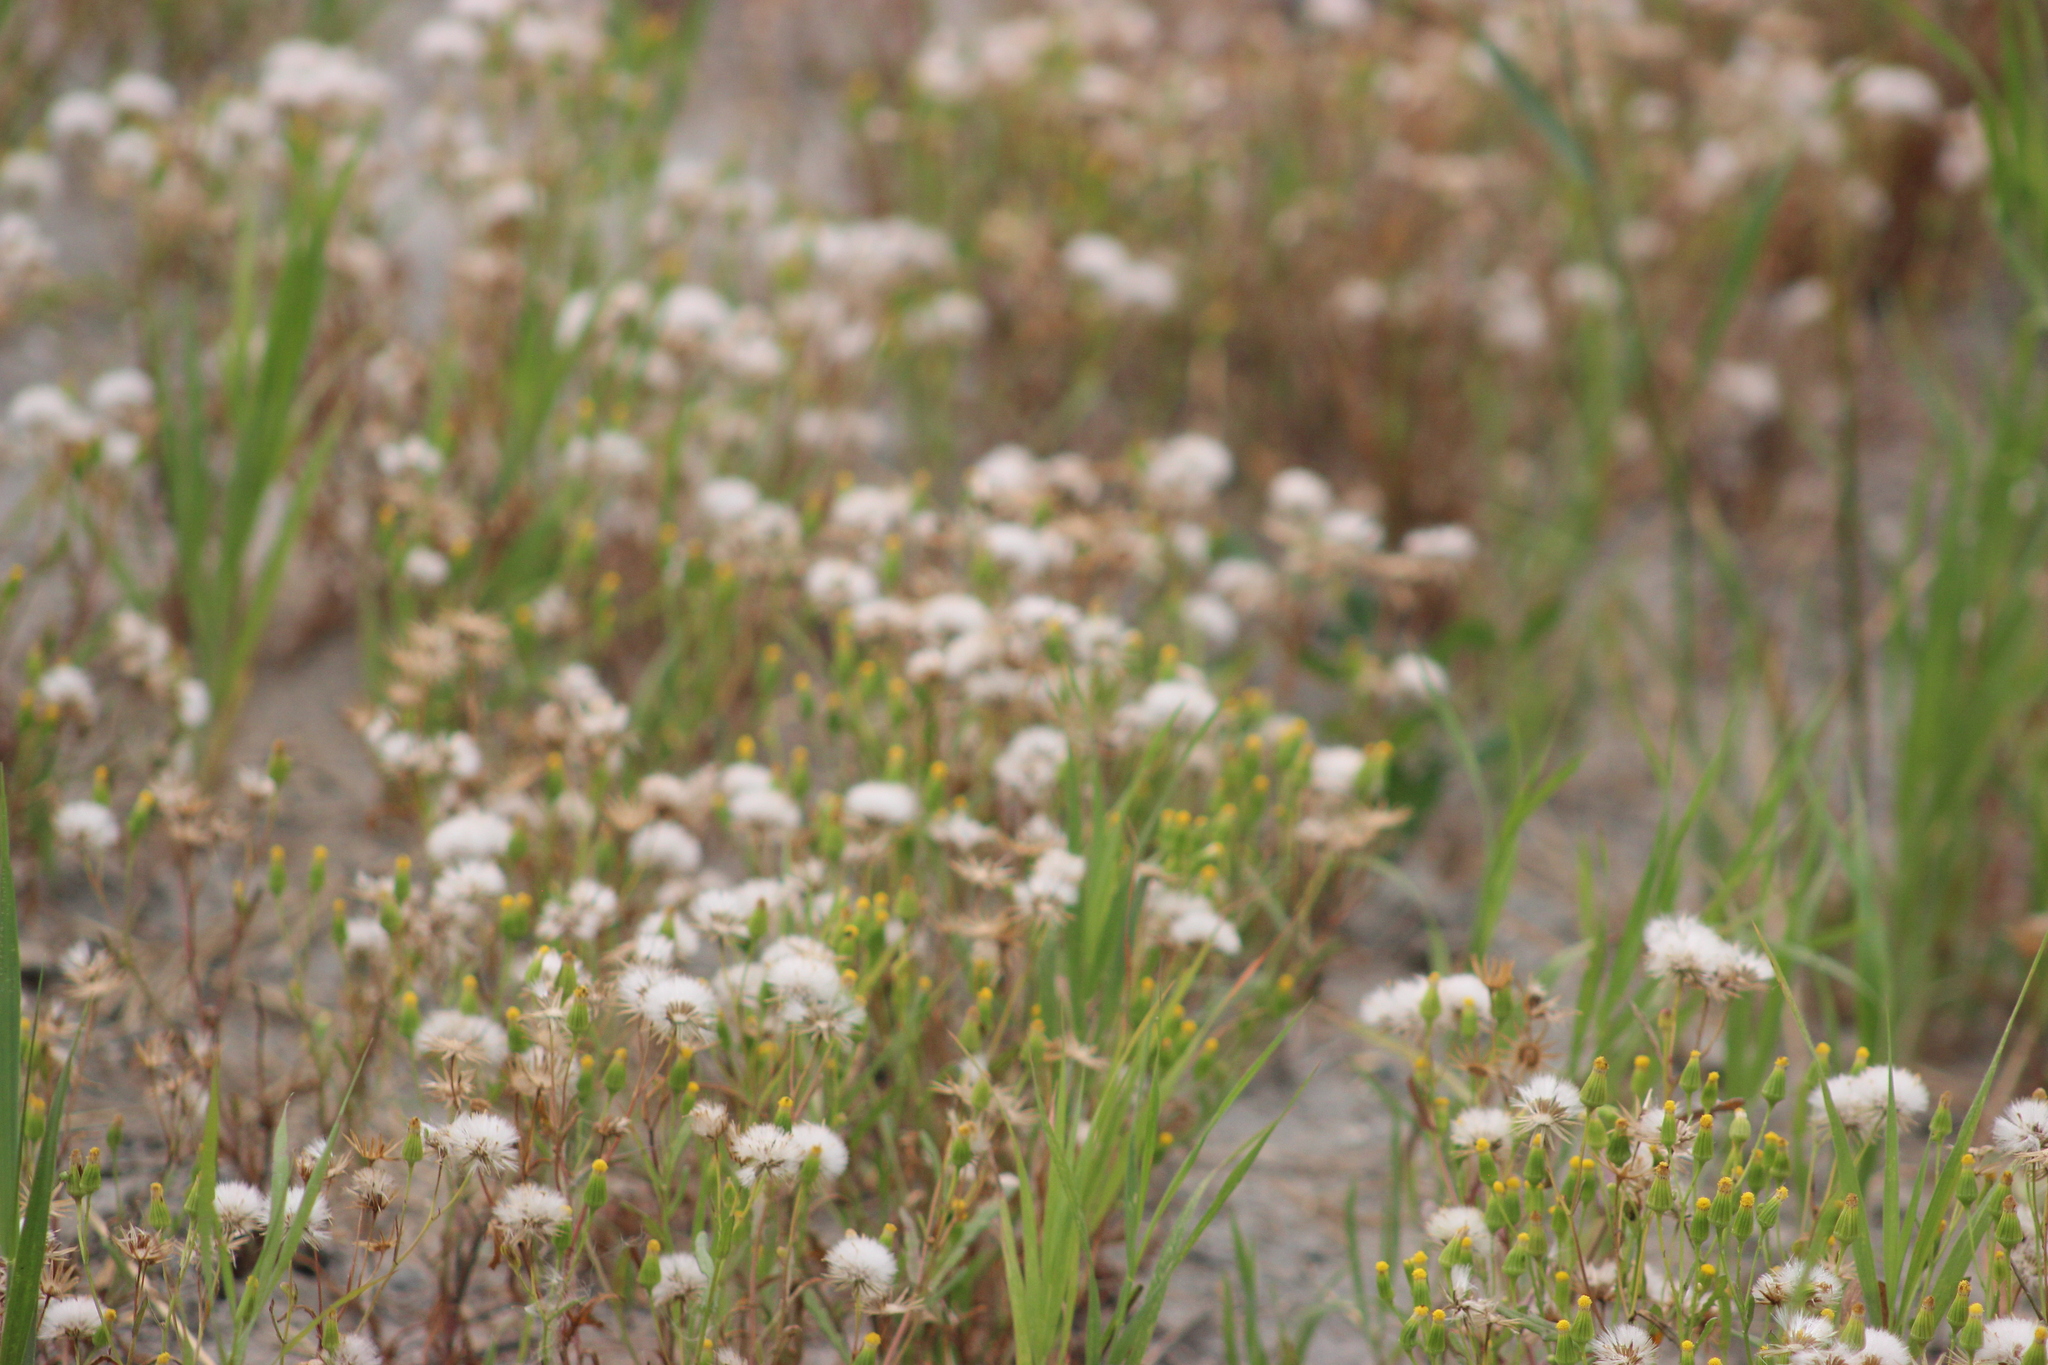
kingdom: Plantae
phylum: Tracheophyta
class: Magnoliopsida
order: Asterales
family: Asteraceae
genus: Senecio
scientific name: Senecio dubitabilis
